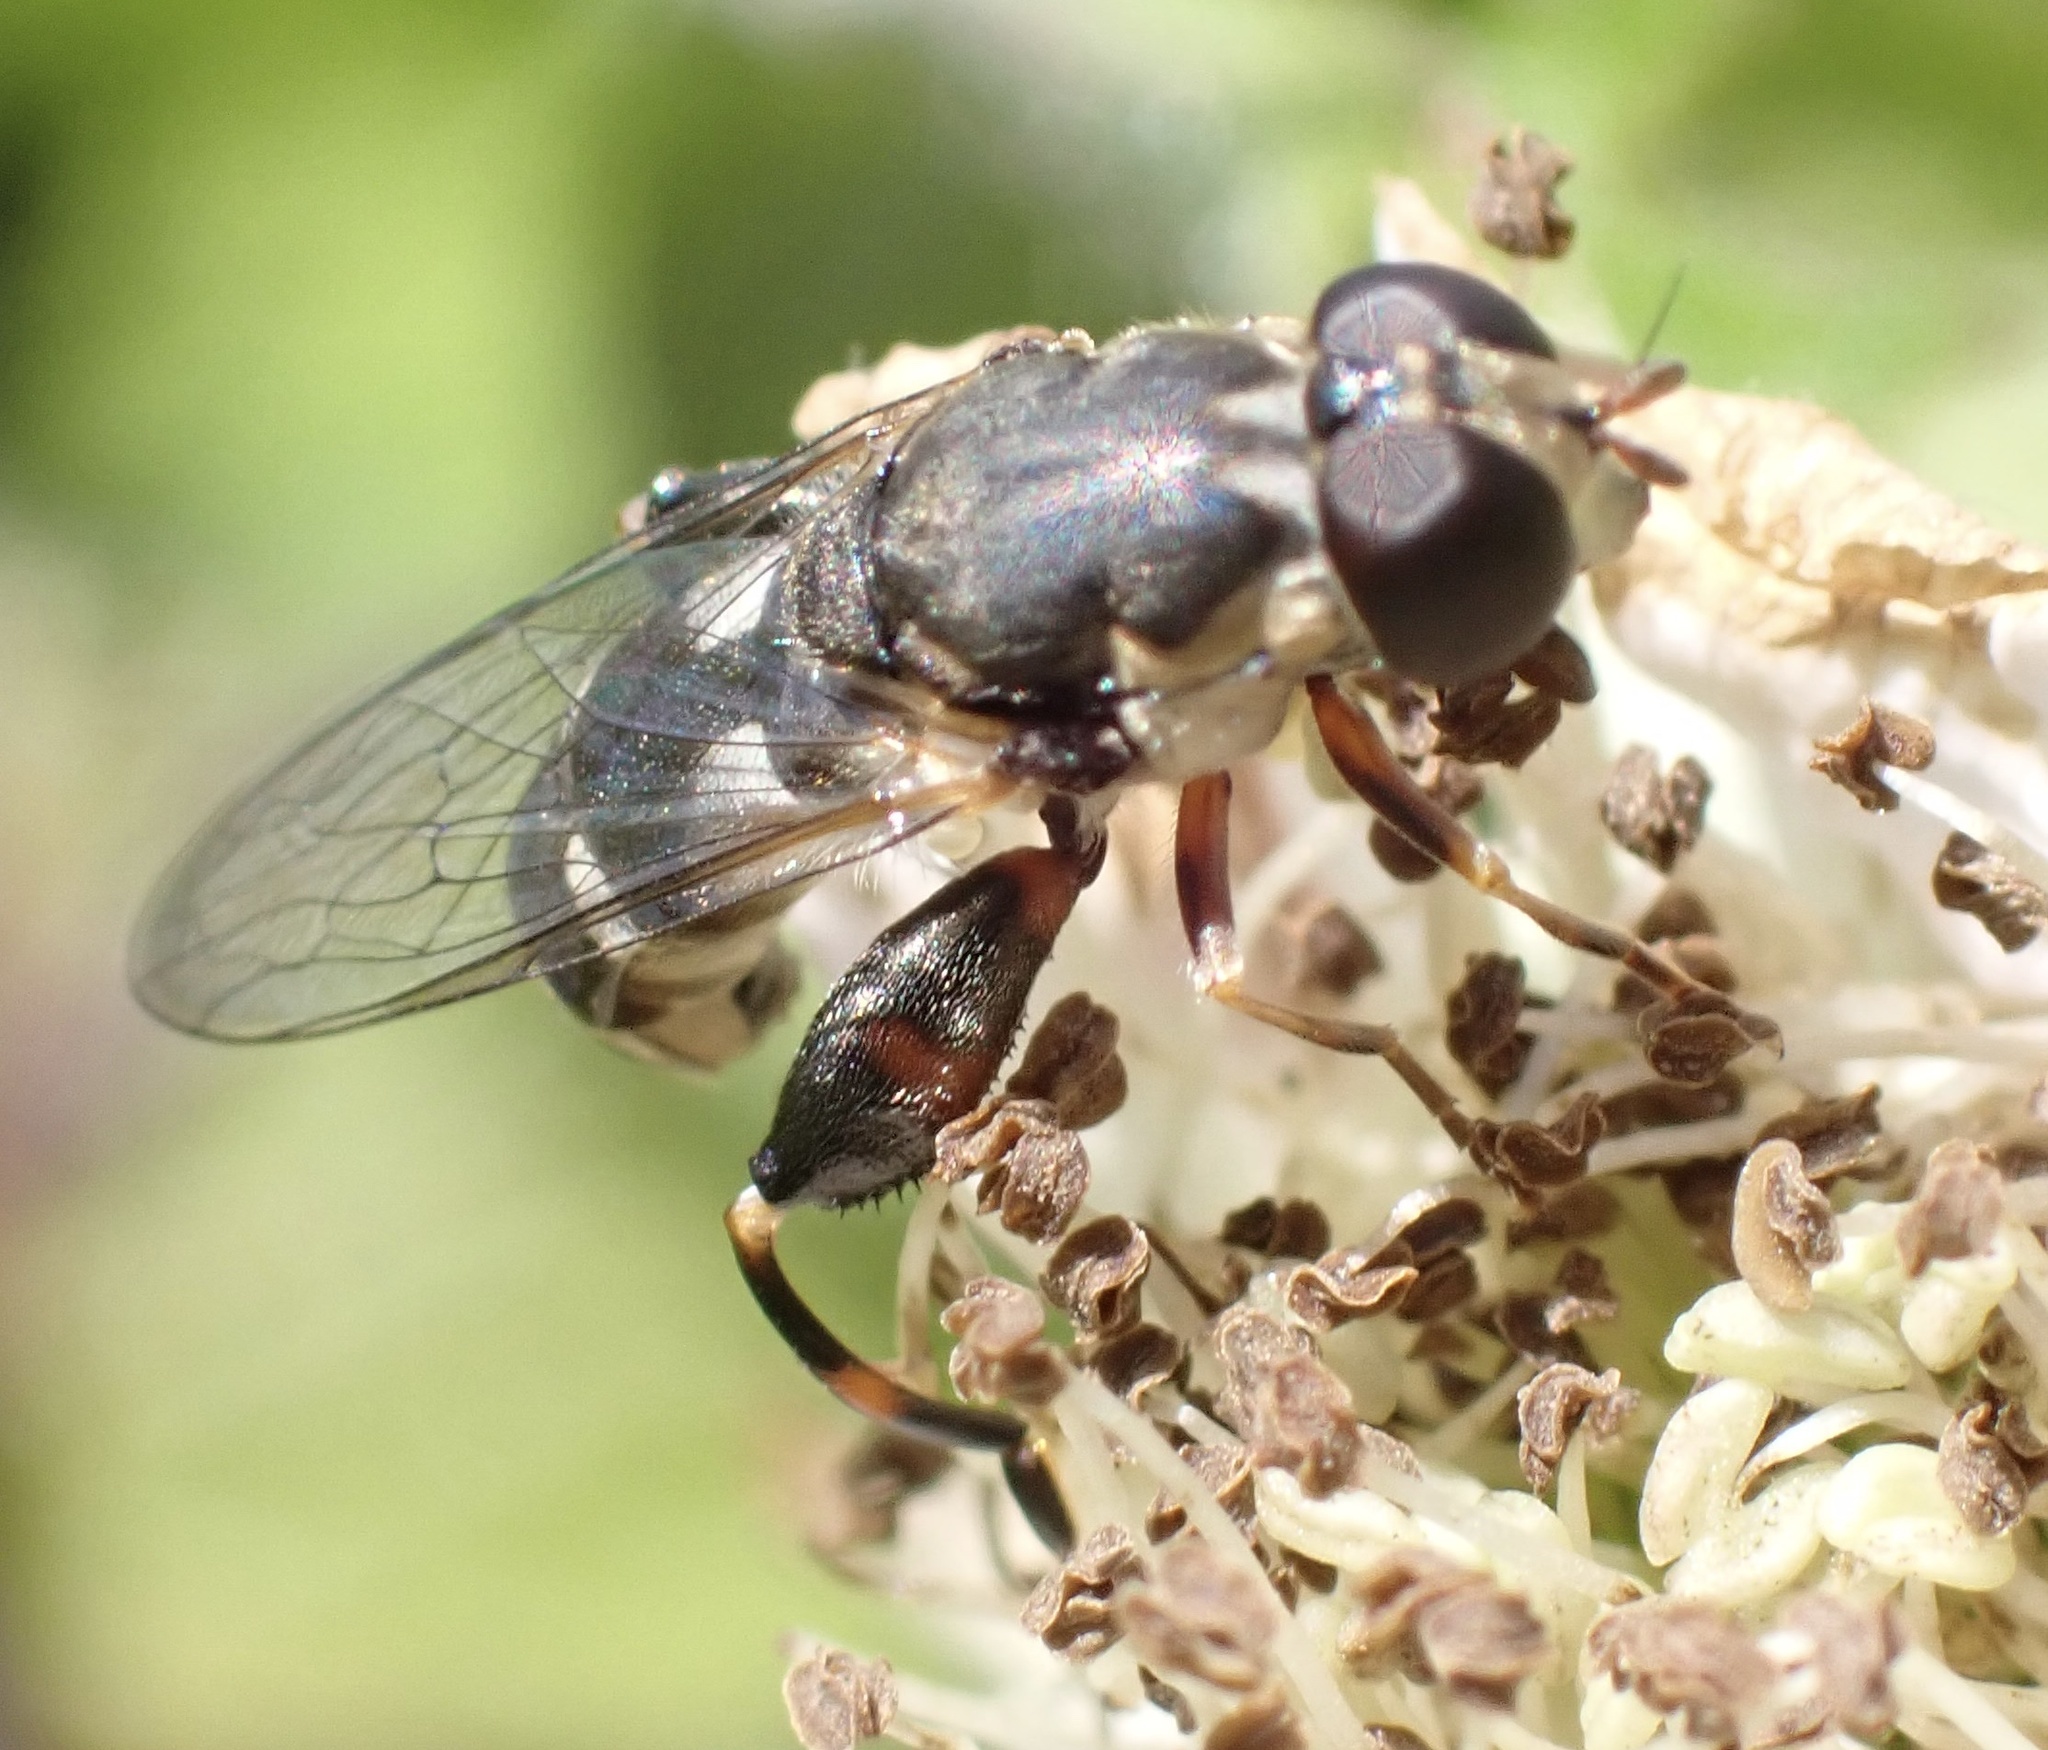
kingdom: Animalia
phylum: Arthropoda
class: Insecta
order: Diptera
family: Syrphidae
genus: Syritta
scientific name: Syritta pipiens
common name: Hover fly
